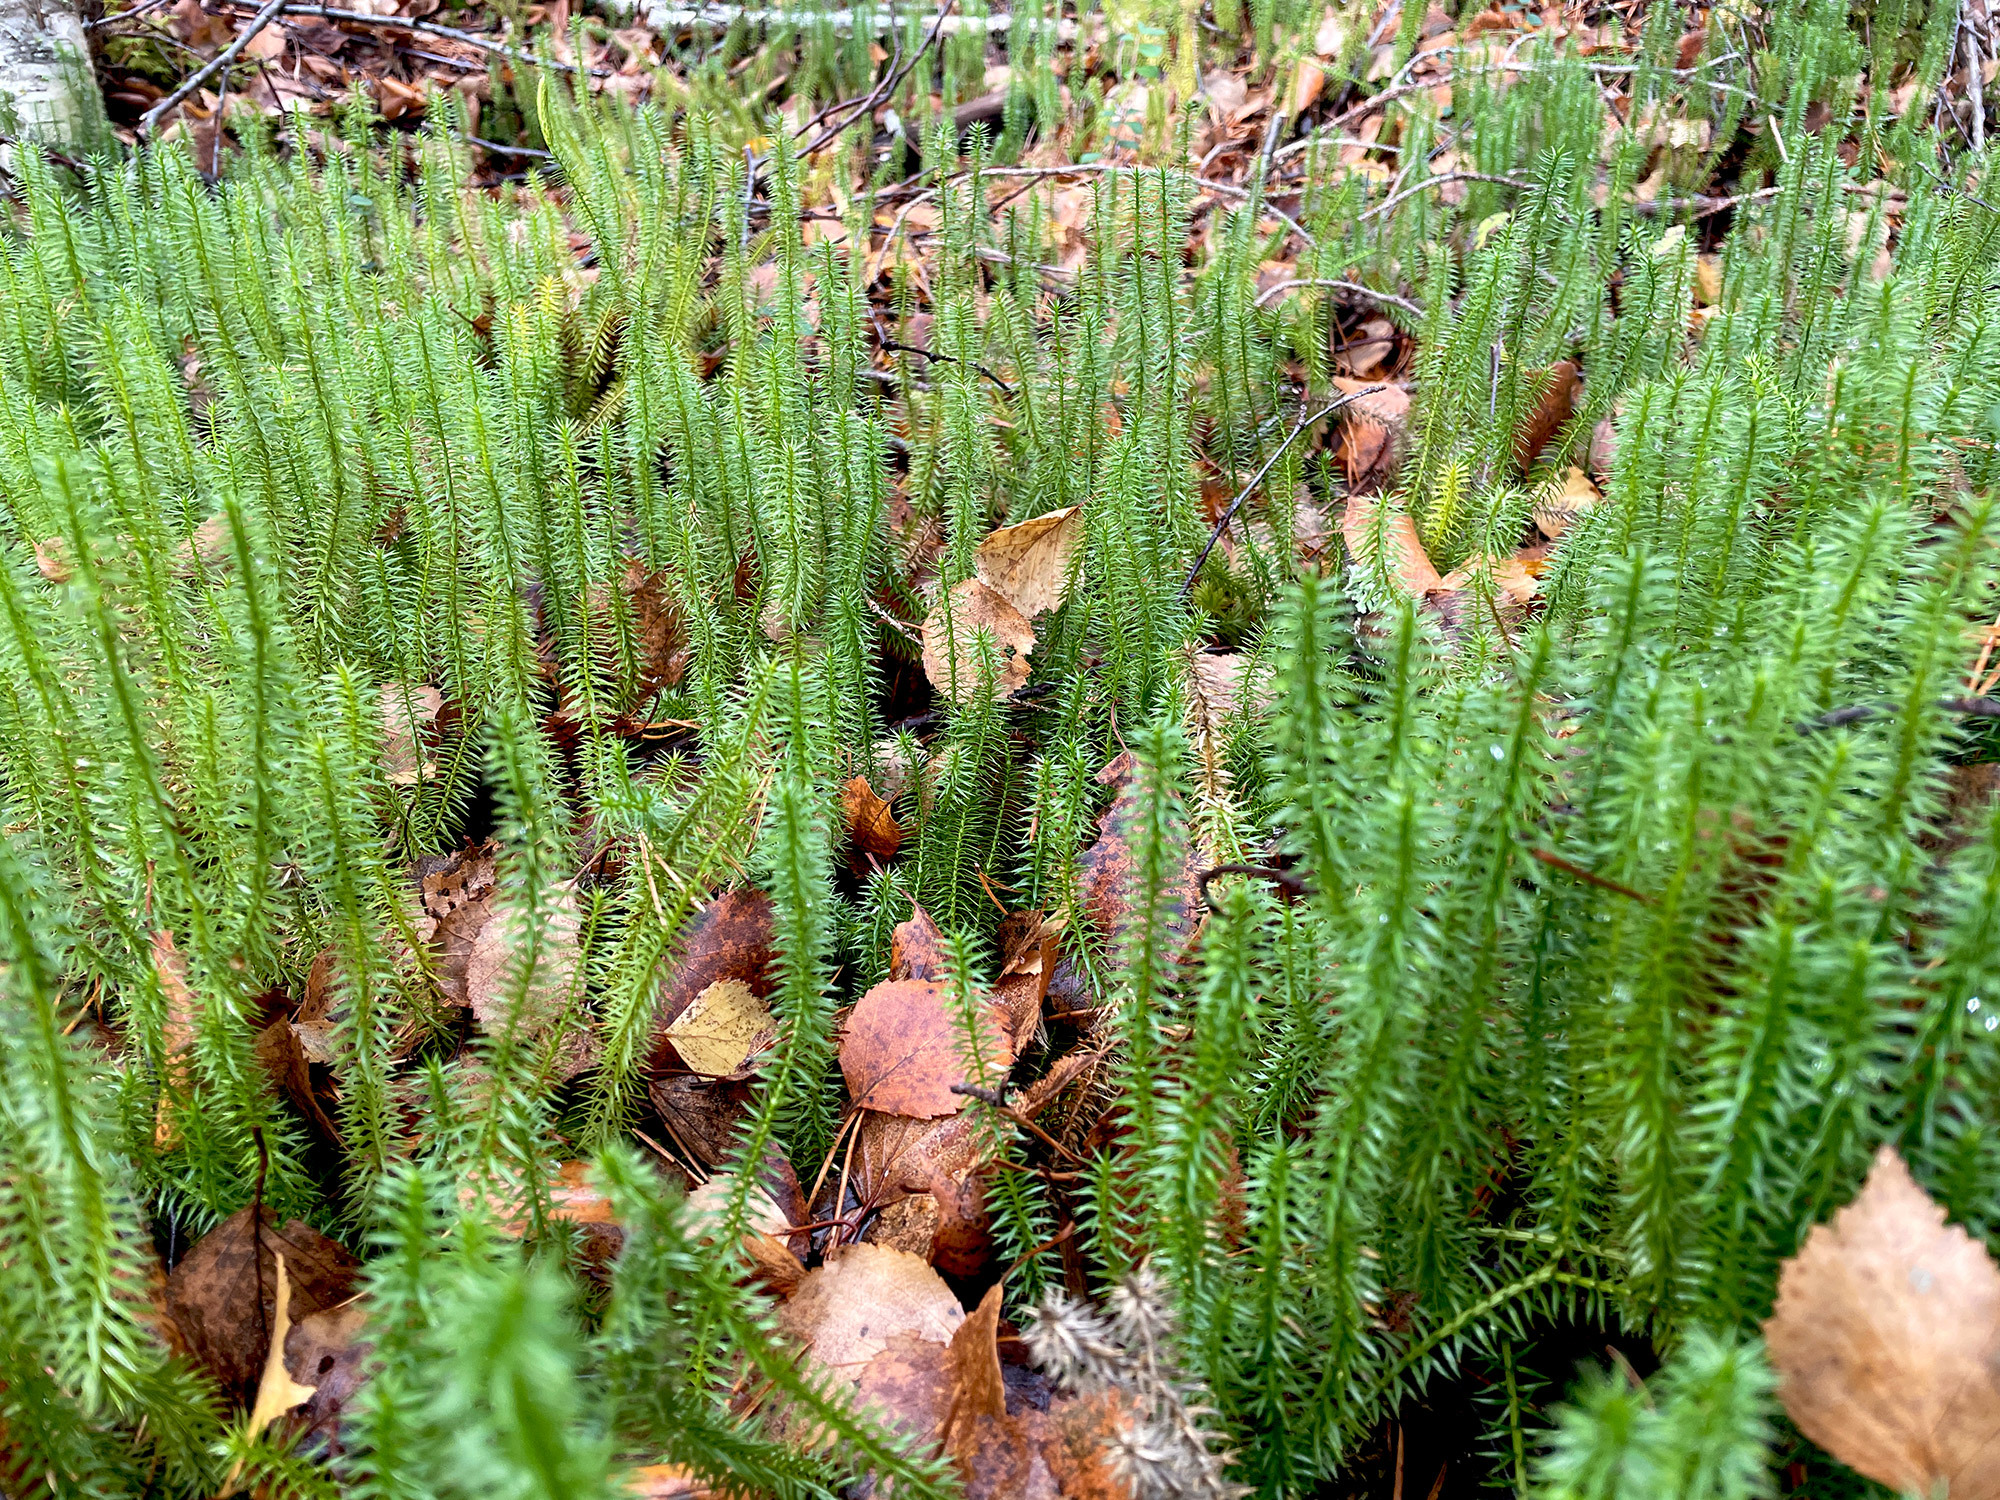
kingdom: Plantae
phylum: Tracheophyta
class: Lycopodiopsida
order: Lycopodiales
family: Lycopodiaceae
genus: Spinulum
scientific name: Spinulum annotinum
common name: Interrupted club-moss
